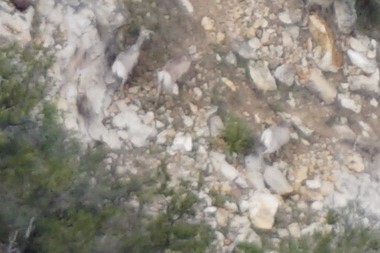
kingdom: Animalia
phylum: Chordata
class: Mammalia
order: Artiodactyla
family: Bovidae
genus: Ovis
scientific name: Ovis canadensis
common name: Bighorn sheep
